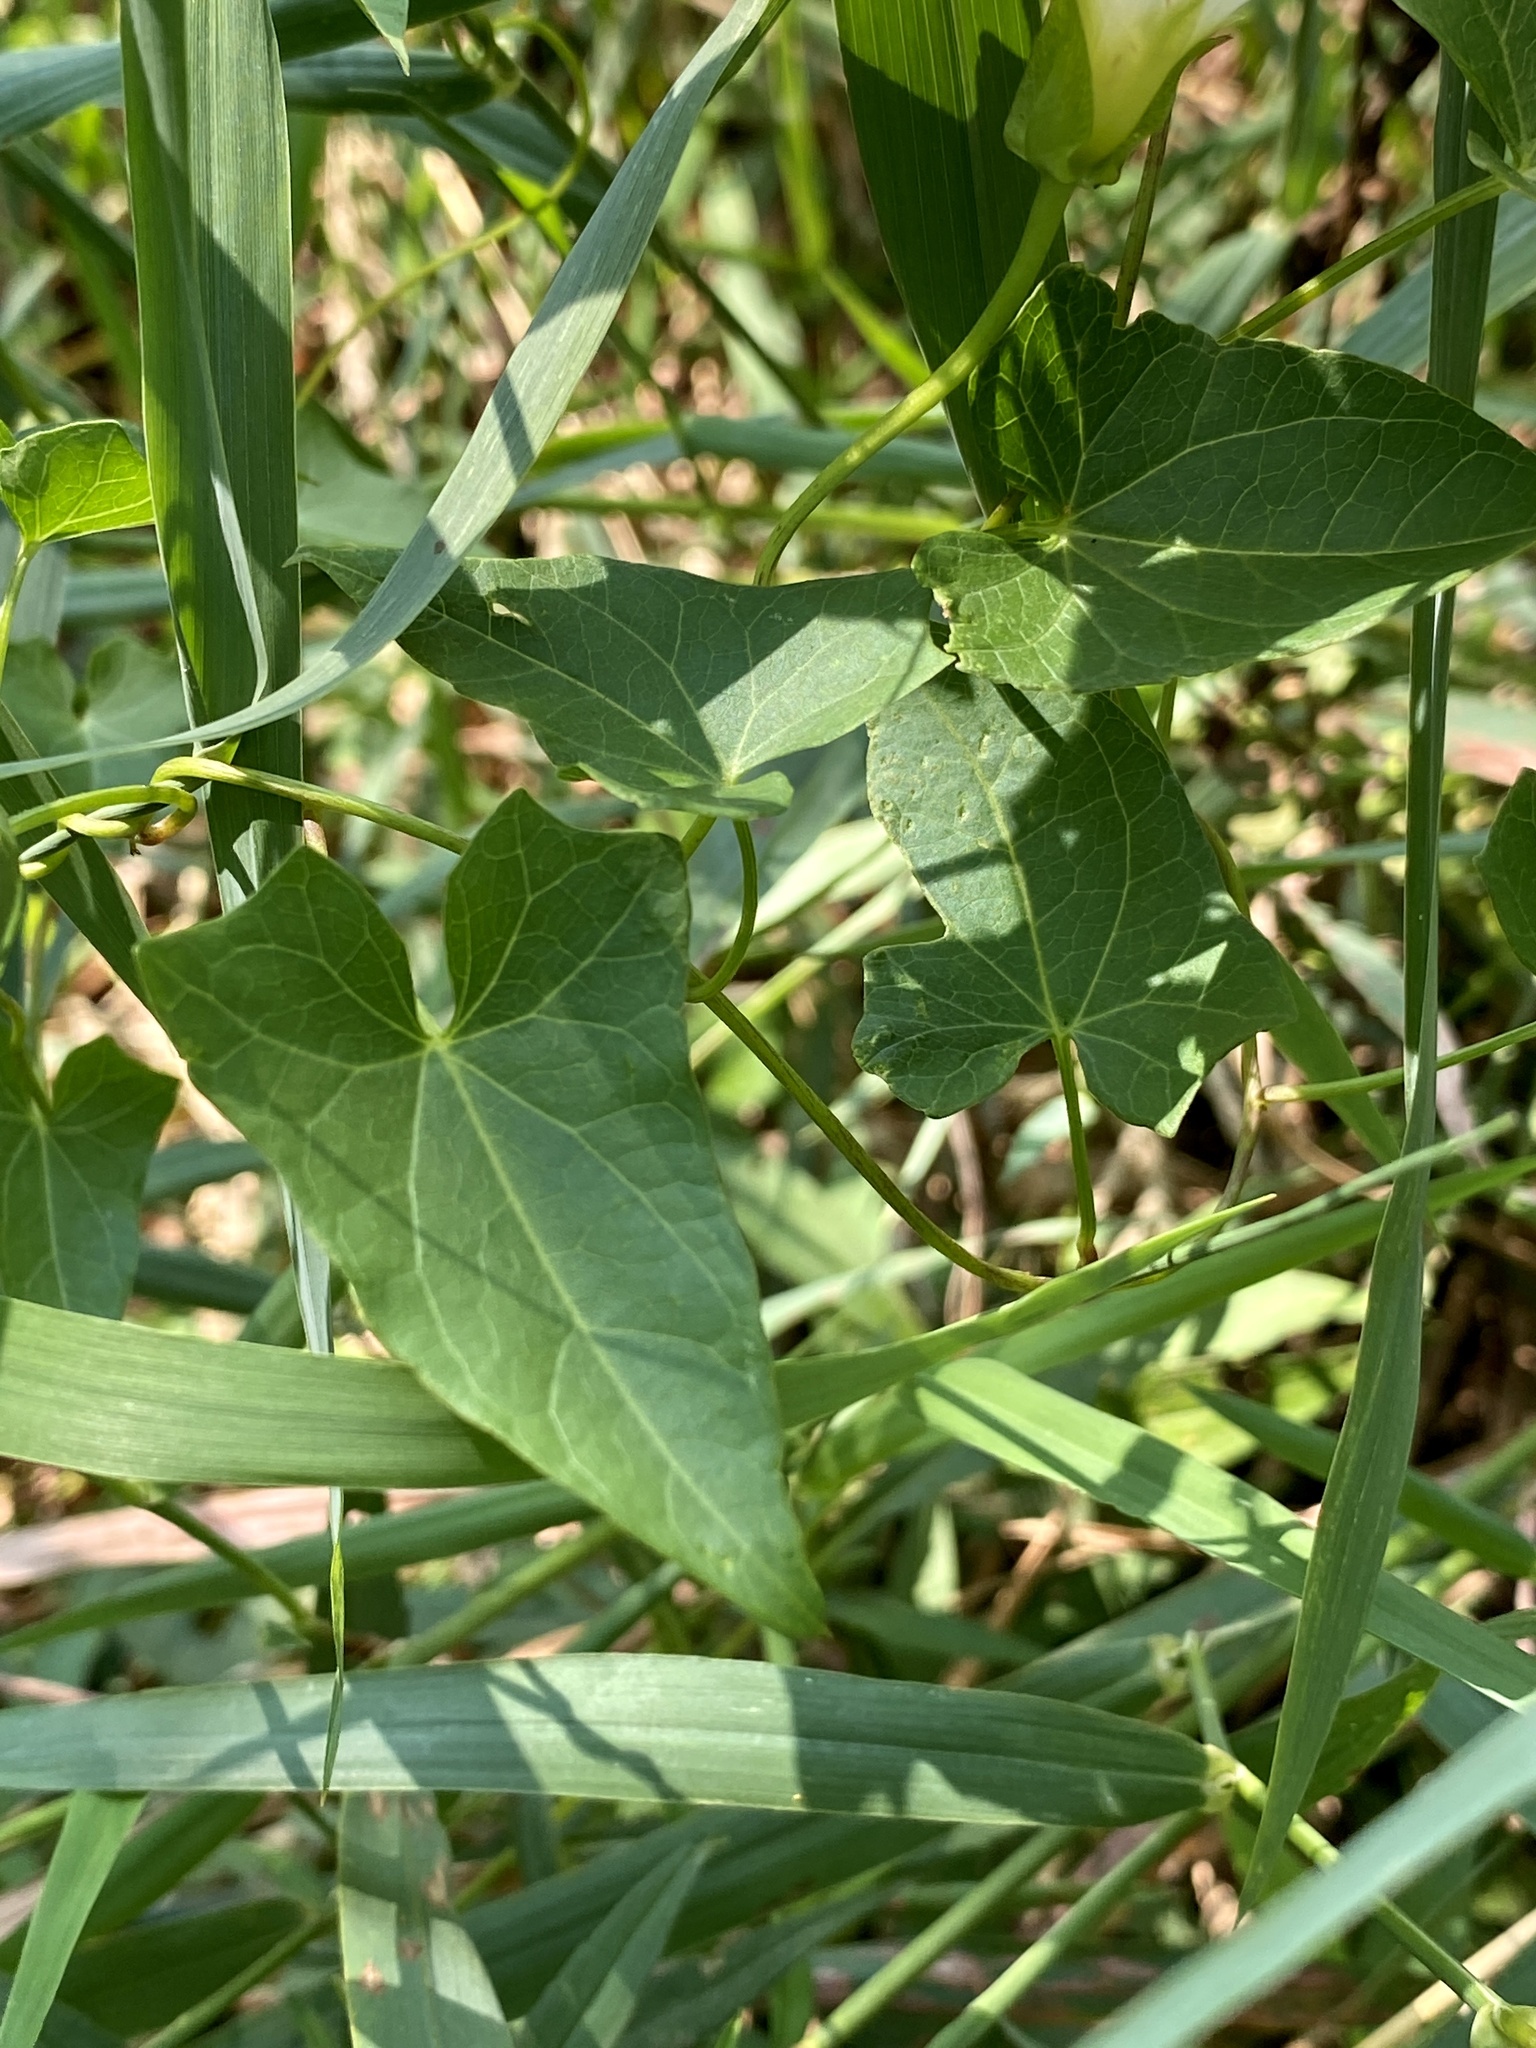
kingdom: Plantae
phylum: Tracheophyta
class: Magnoliopsida
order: Solanales
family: Convolvulaceae
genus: Calystegia
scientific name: Calystegia sepium
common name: Hedge bindweed
